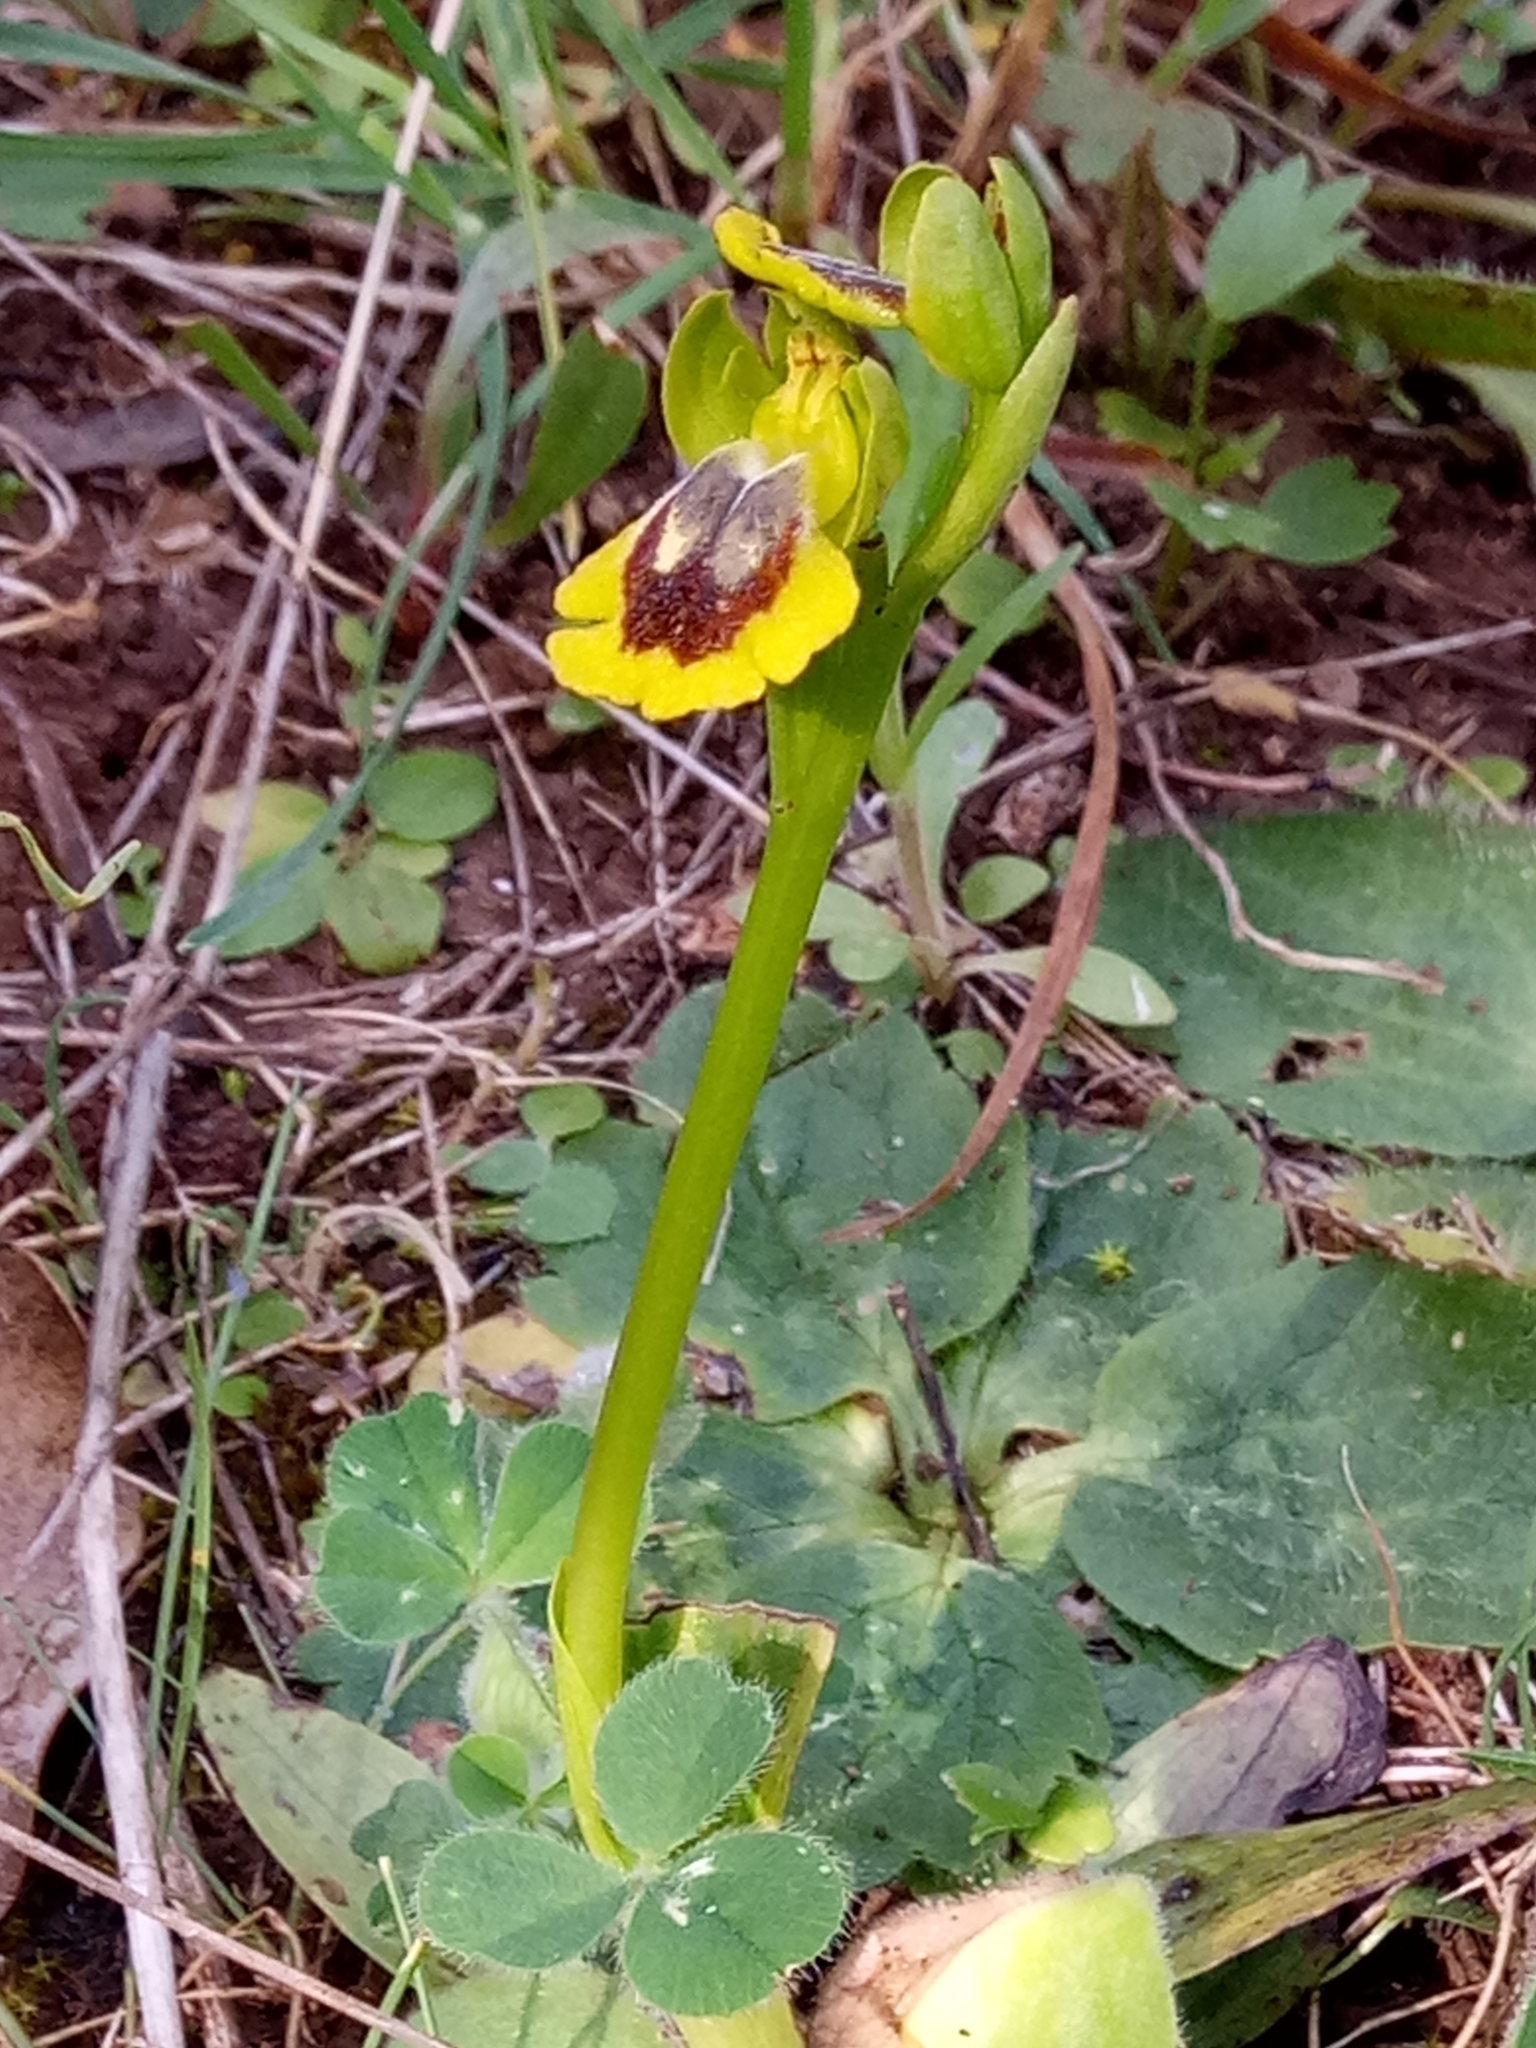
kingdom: Plantae
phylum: Tracheophyta
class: Liliopsida
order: Asparagales
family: Orchidaceae
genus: Ophrys
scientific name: Ophrys lutea
